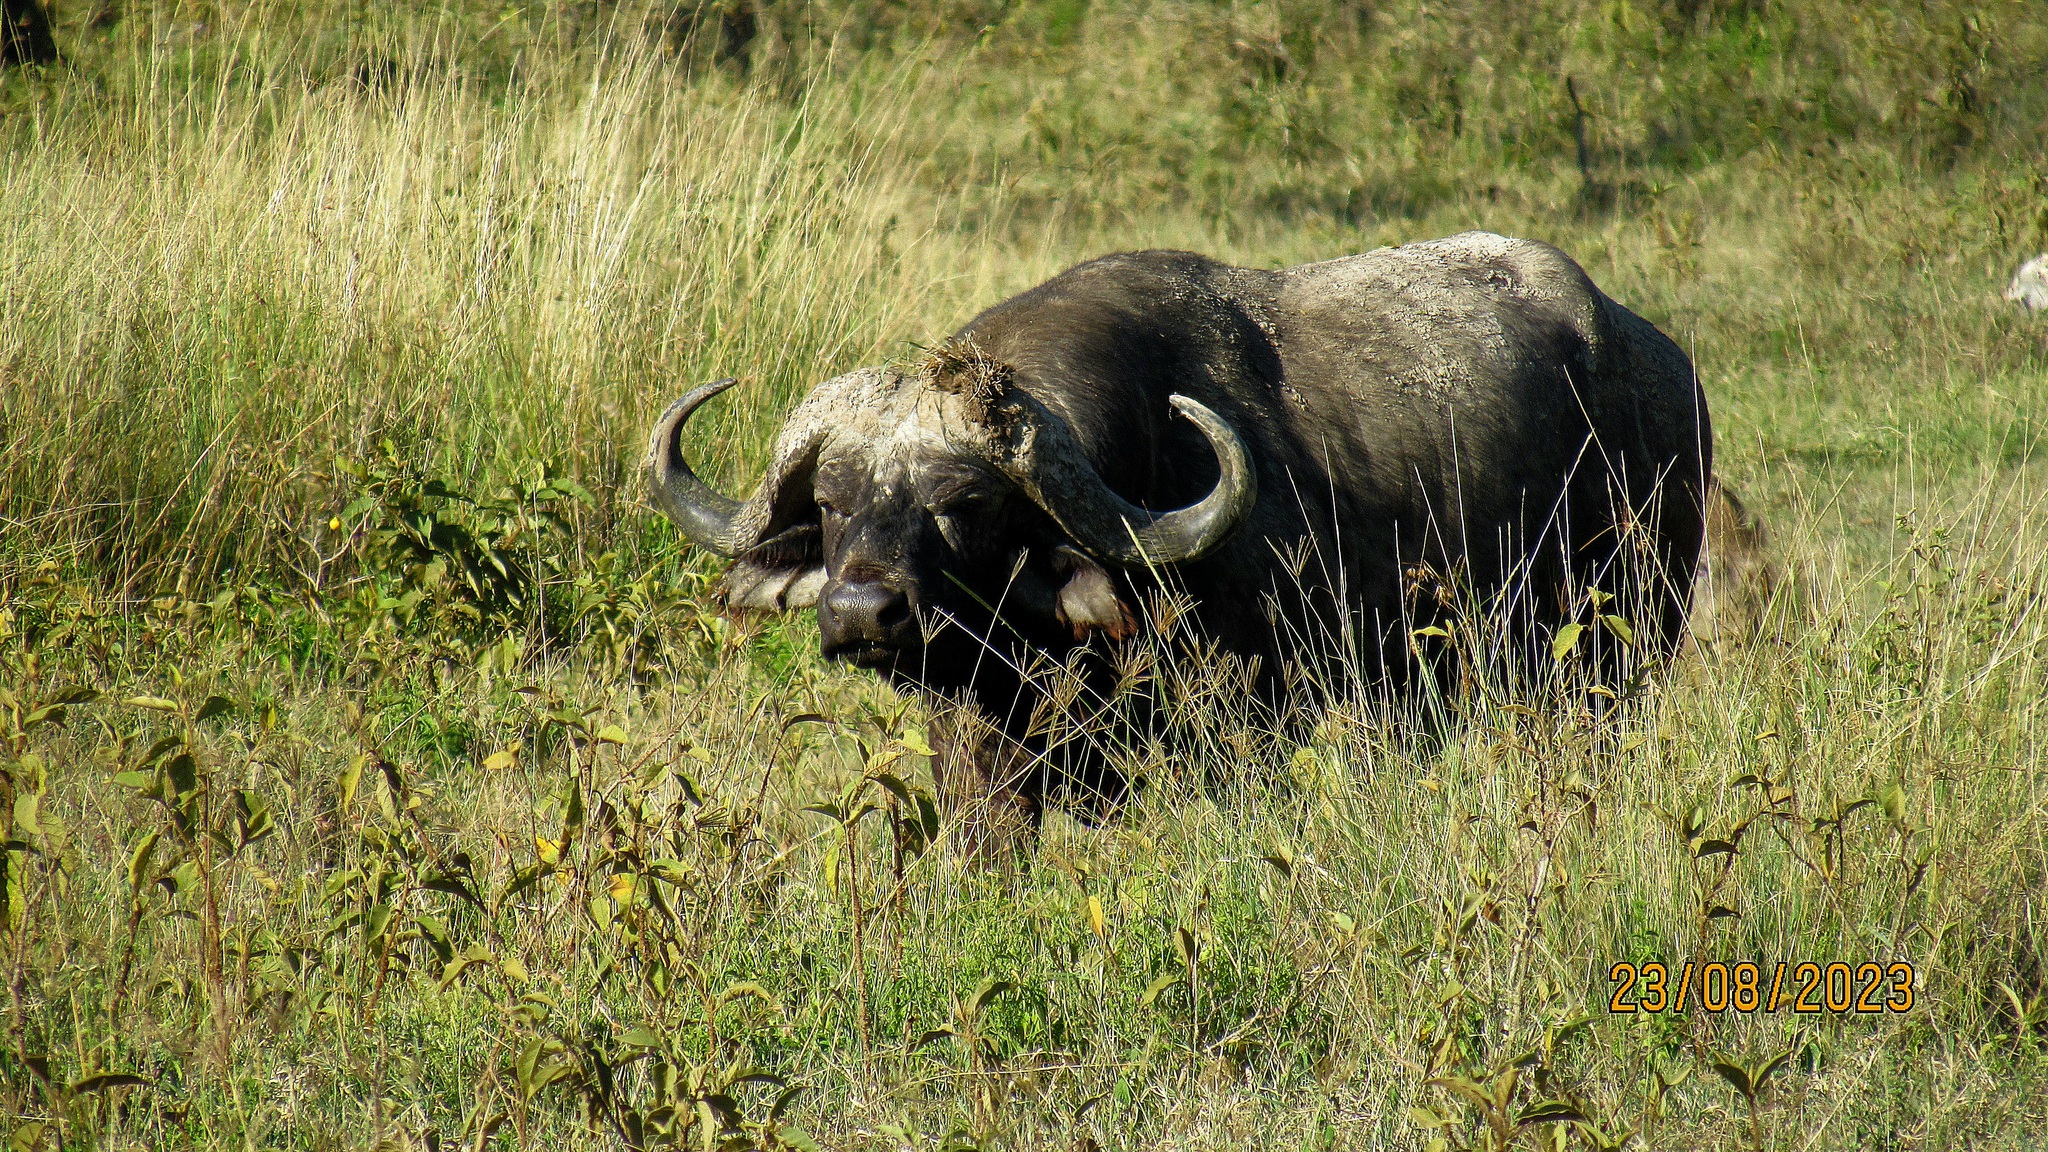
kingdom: Animalia
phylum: Chordata
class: Mammalia
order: Artiodactyla
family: Bovidae
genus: Syncerus
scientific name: Syncerus caffer
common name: African buffalo
